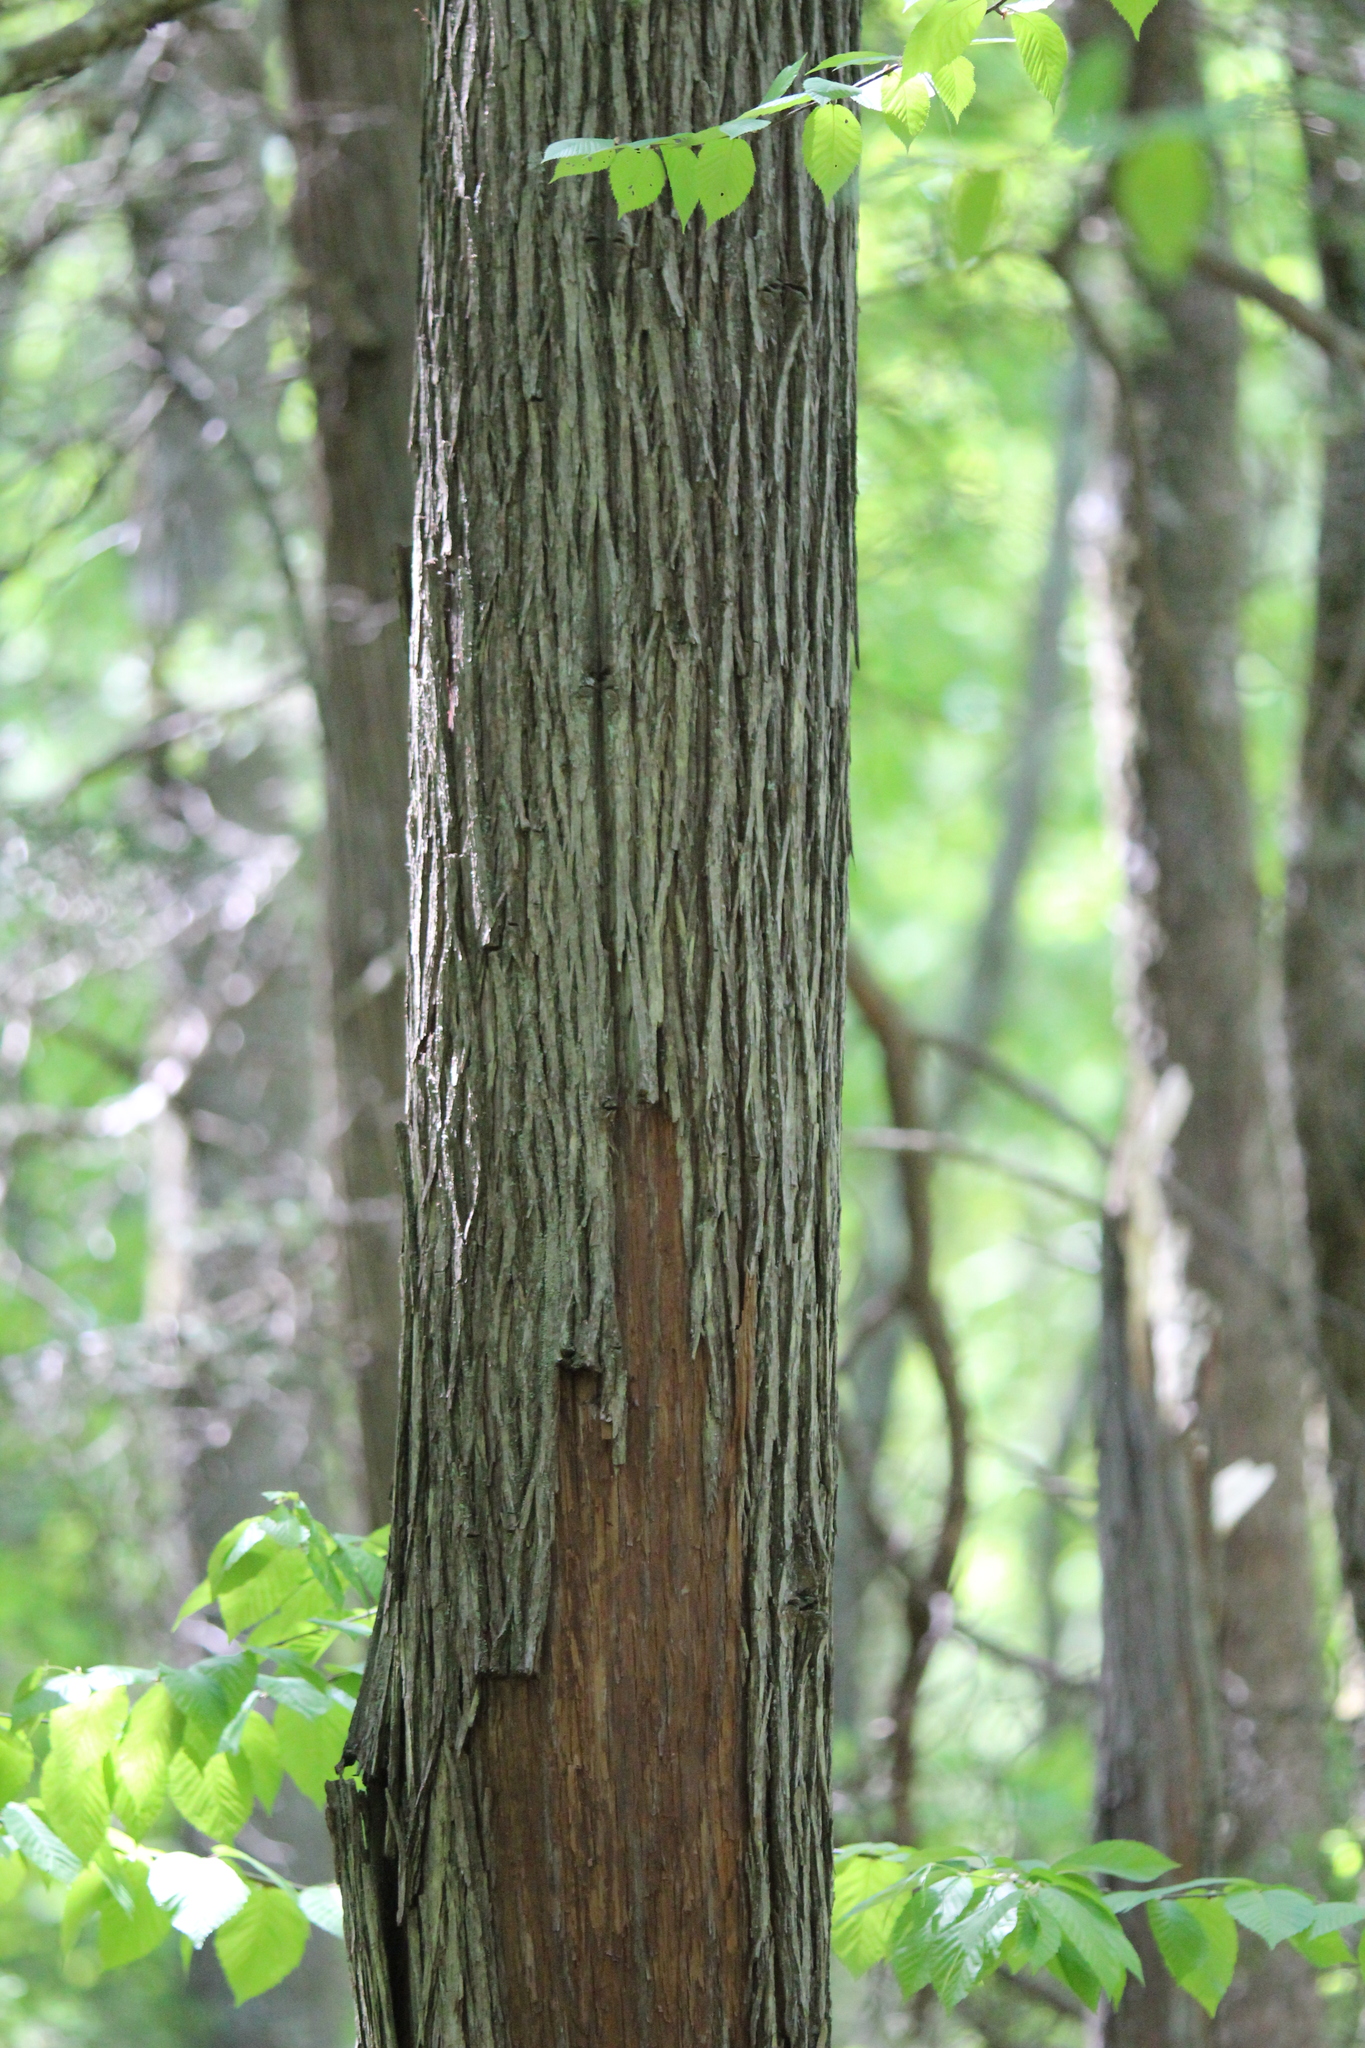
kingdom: Plantae
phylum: Tracheophyta
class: Pinopsida
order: Pinales
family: Cupressaceae
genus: Chamaecyparis
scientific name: Chamaecyparis thyoides
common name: Atlantic white cedar
